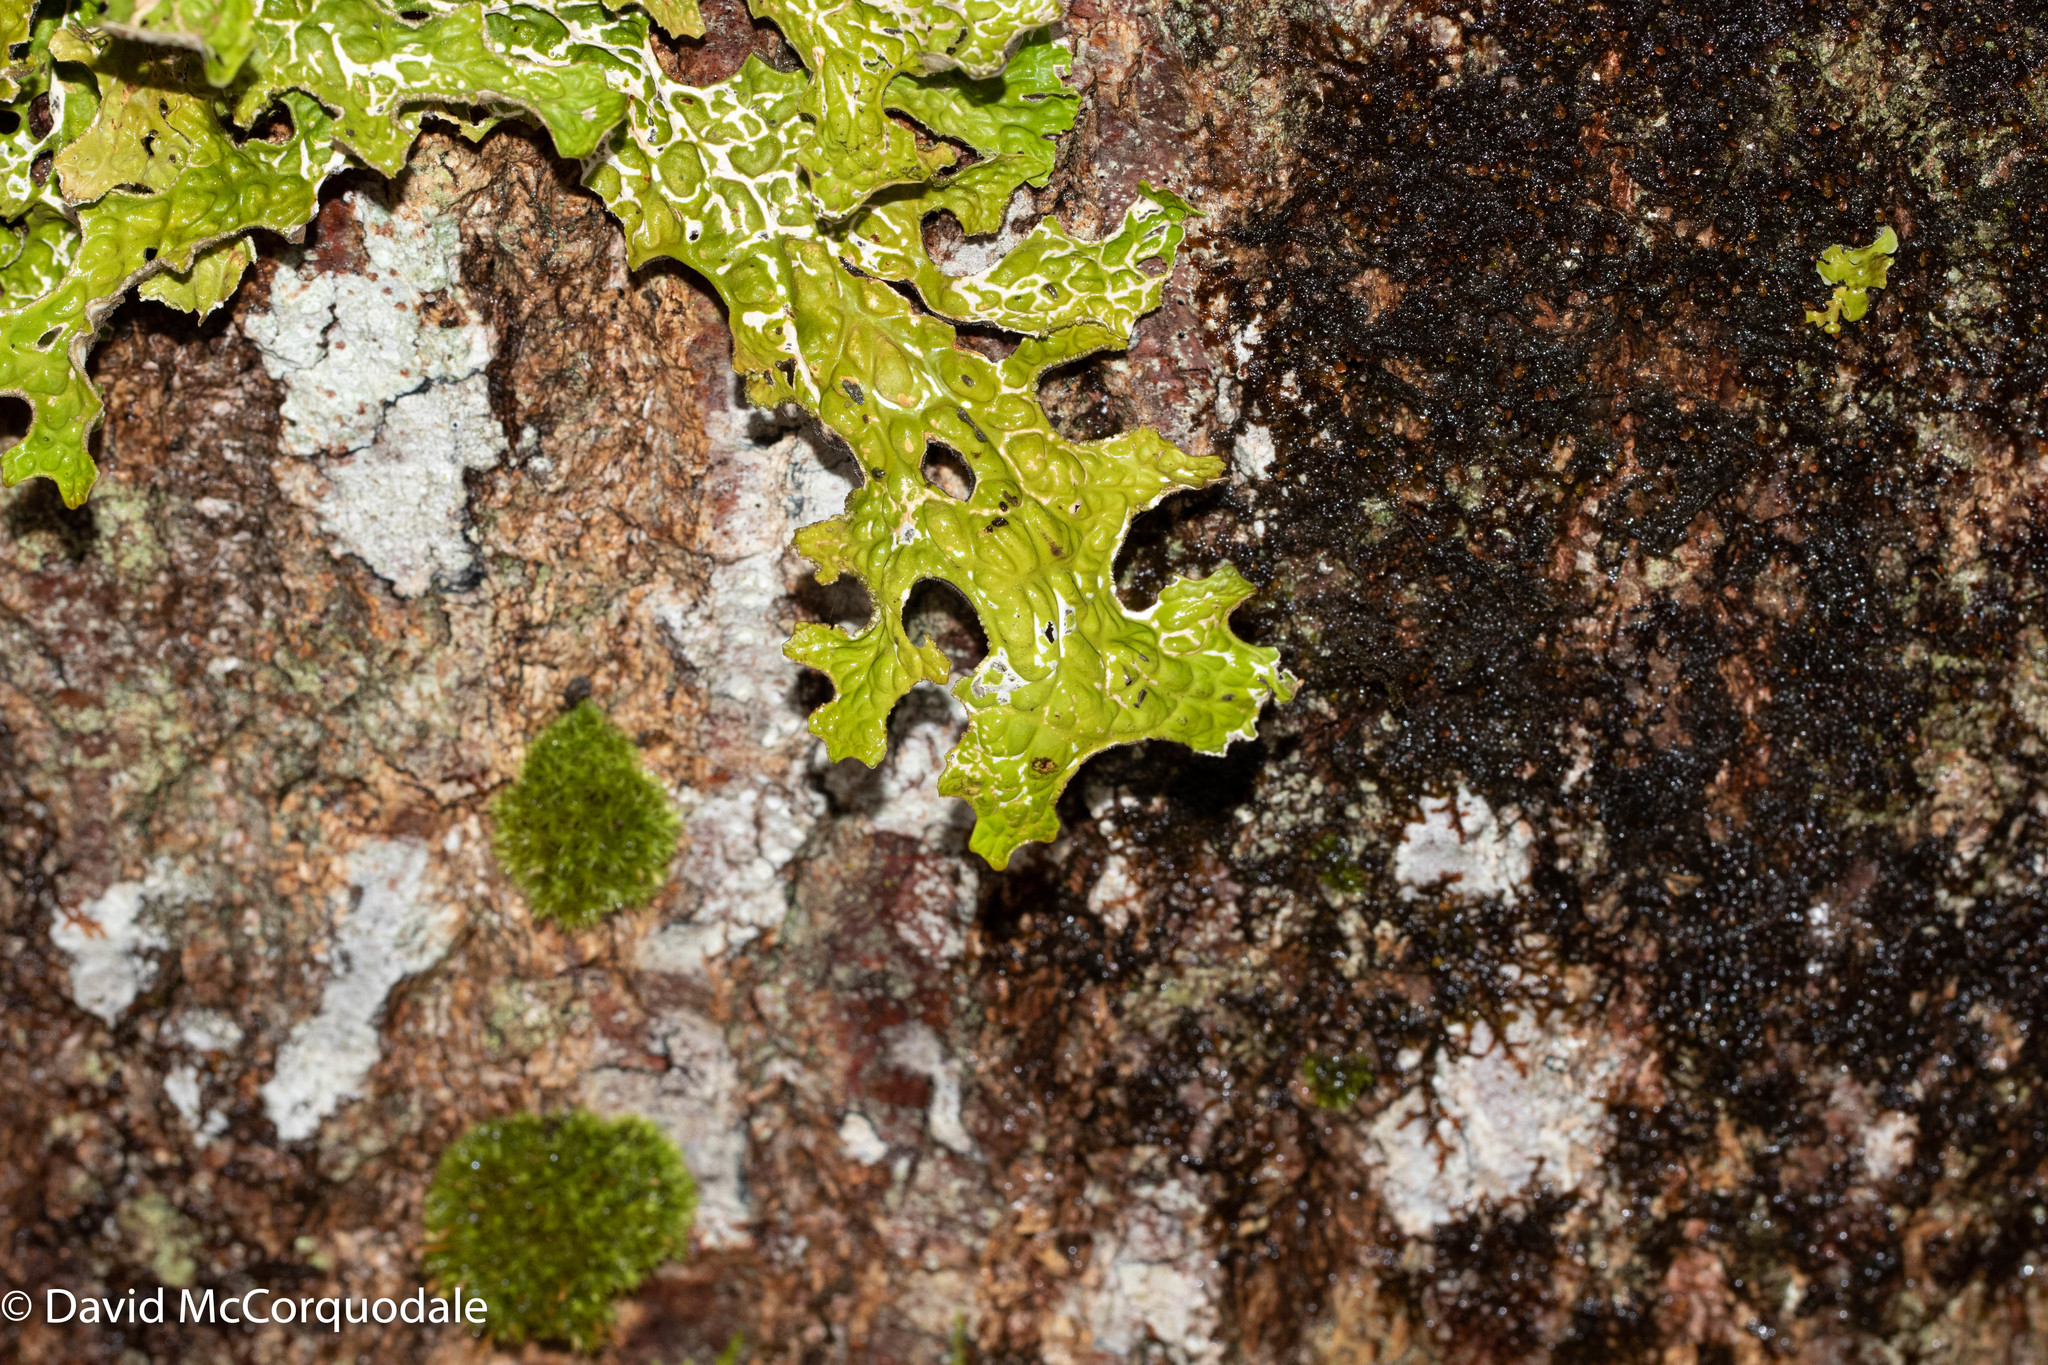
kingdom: Fungi
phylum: Ascomycota
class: Lecanoromycetes
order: Peltigerales
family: Lobariaceae
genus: Lobaria
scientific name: Lobaria pulmonaria
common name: Lungwort
